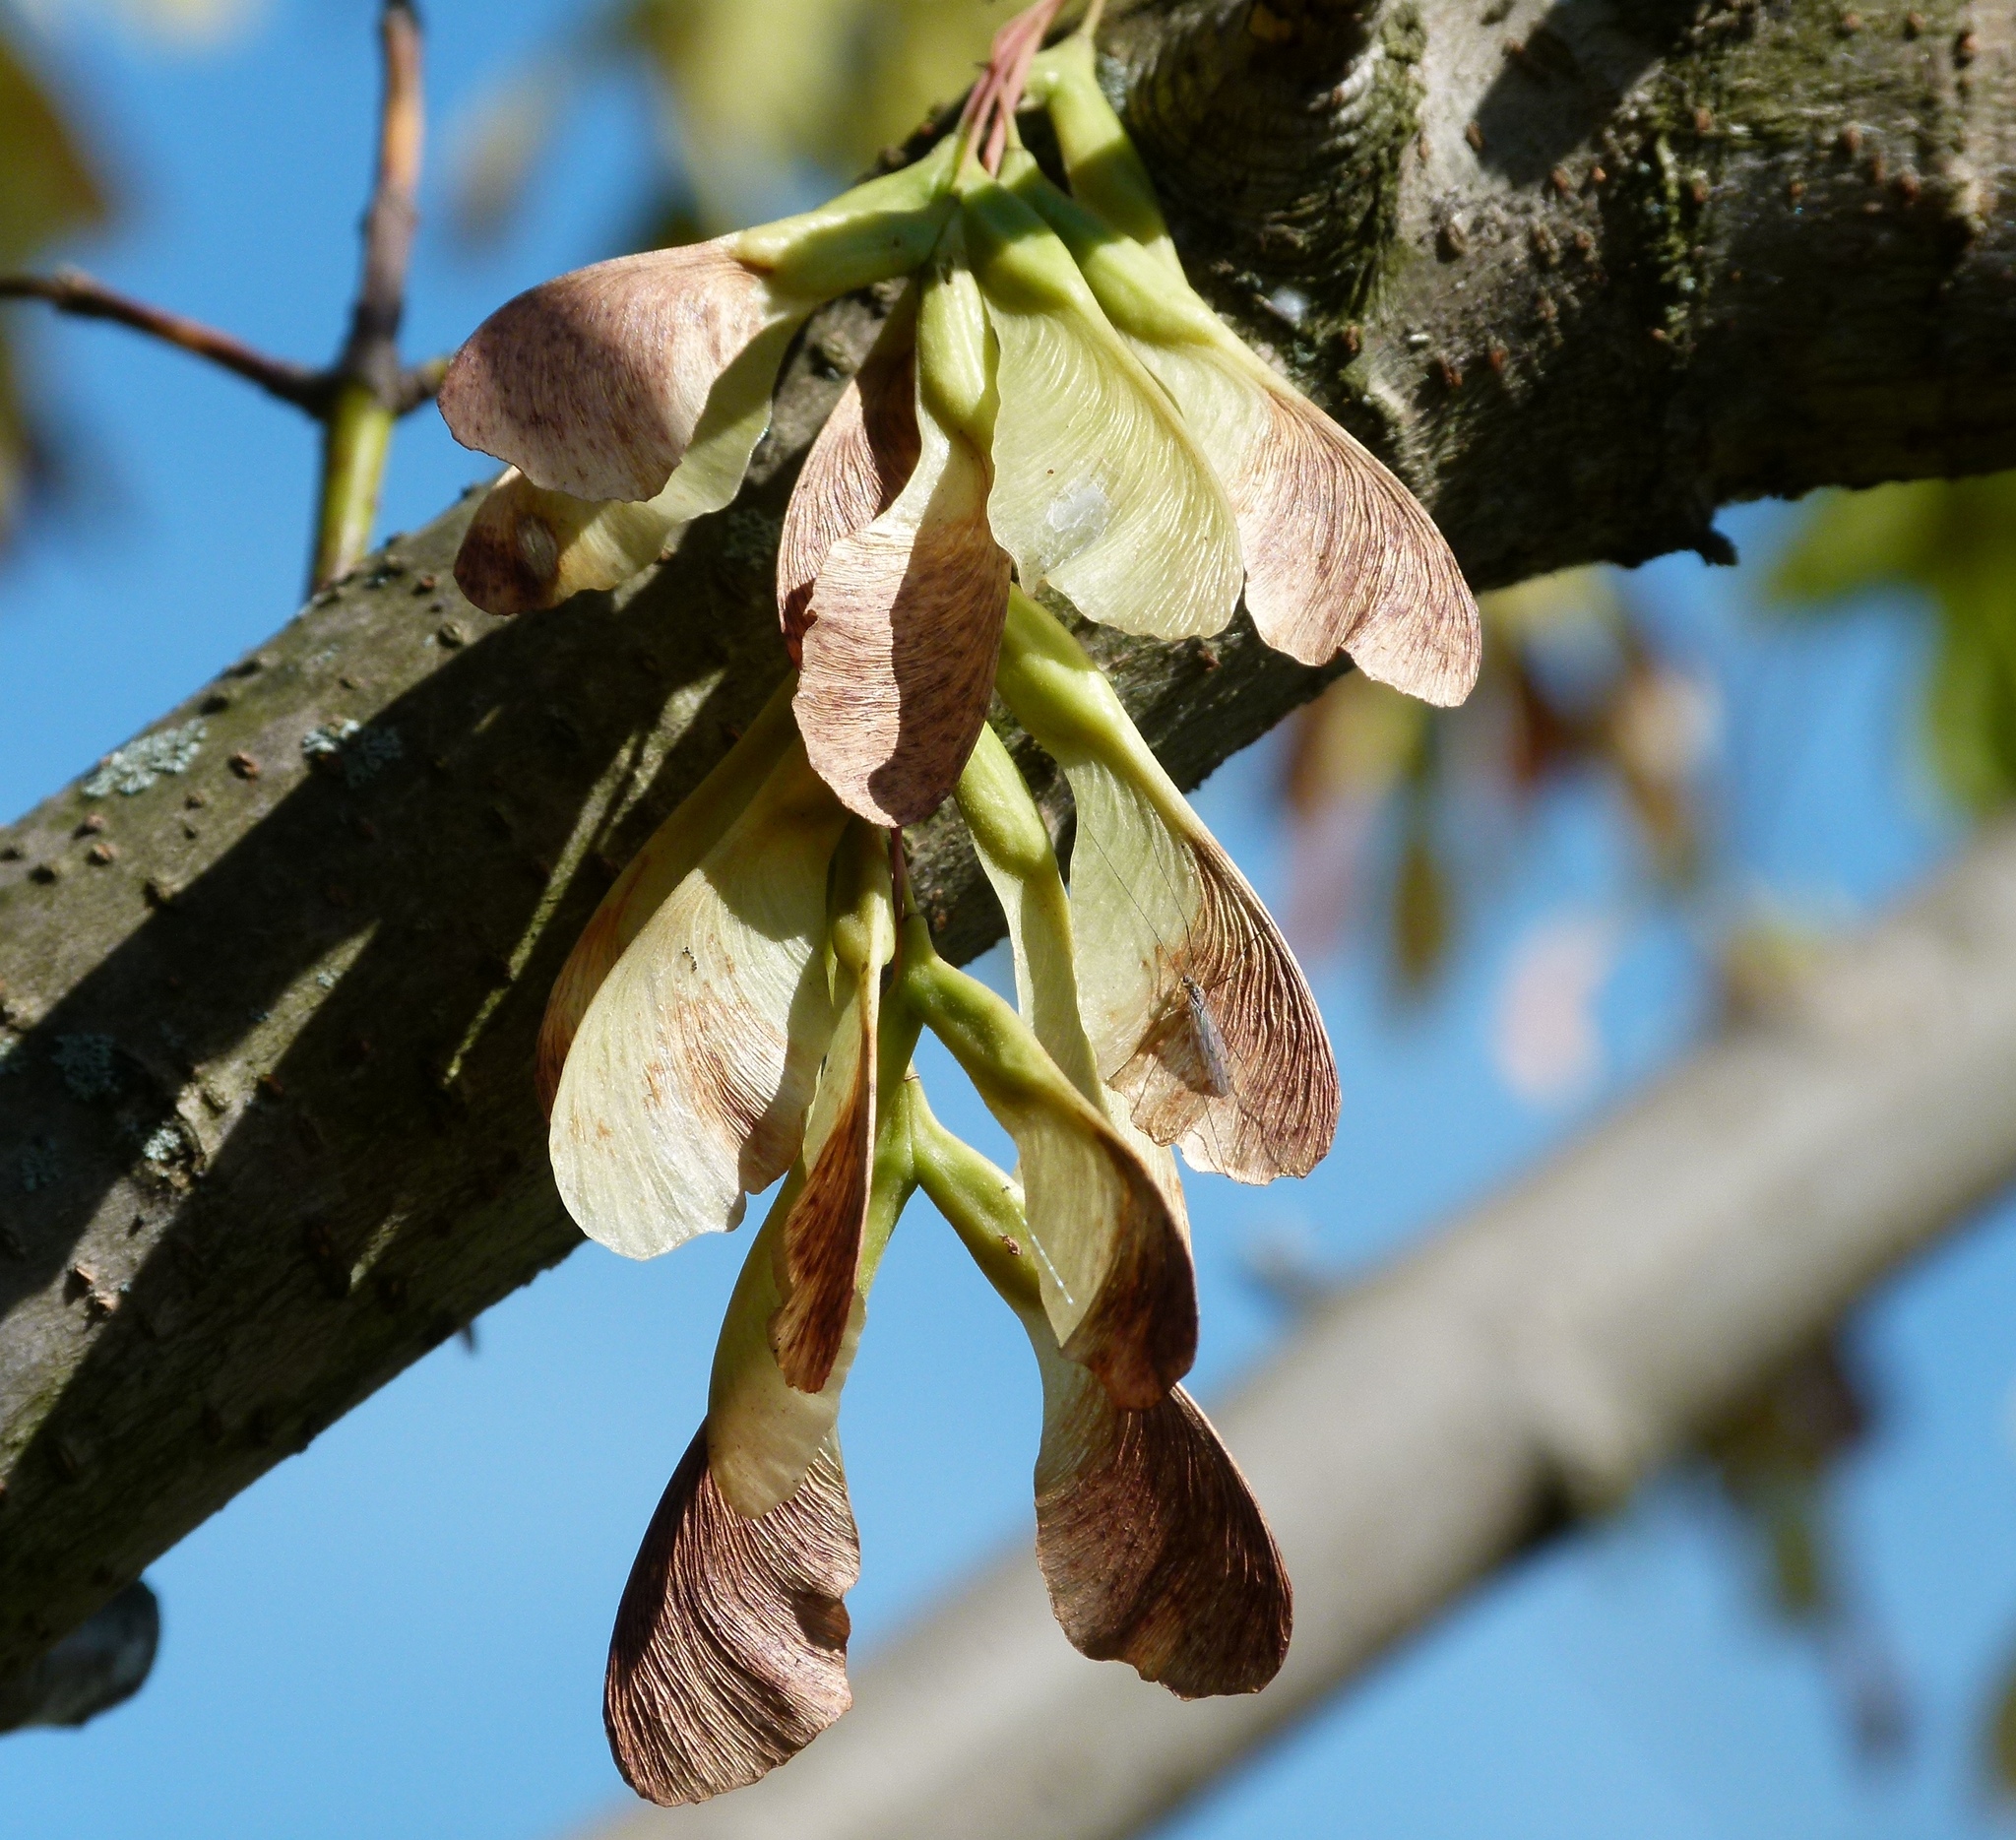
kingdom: Plantae
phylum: Tracheophyta
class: Magnoliopsida
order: Sapindales
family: Sapindaceae
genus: Acer
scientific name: Acer negundo
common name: Ashleaf maple
